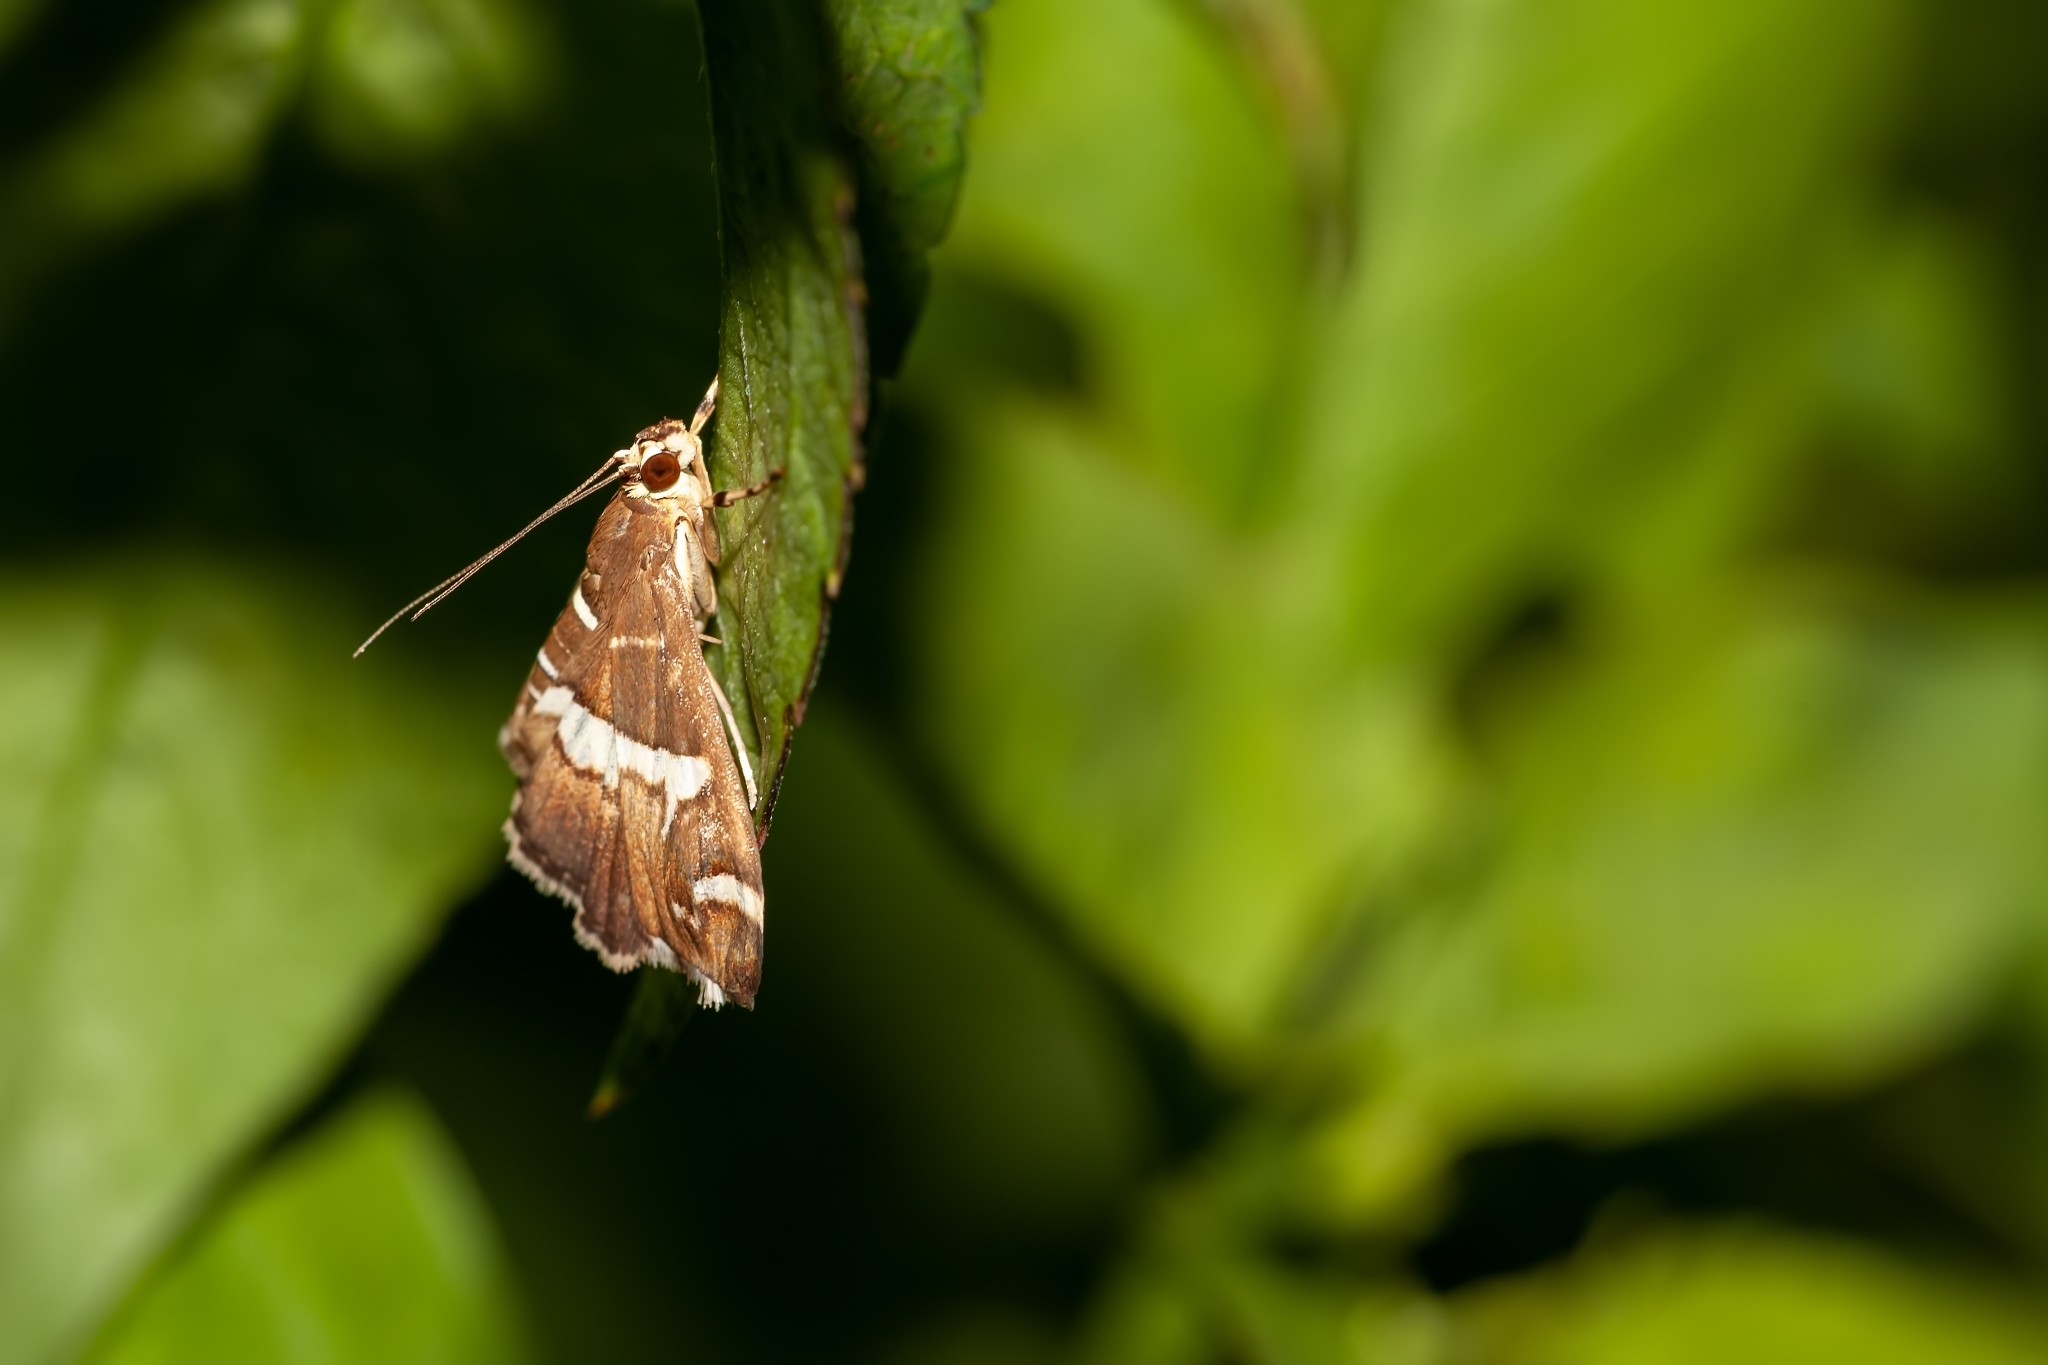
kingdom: Animalia
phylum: Arthropoda
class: Insecta
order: Lepidoptera
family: Crambidae
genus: Spoladea
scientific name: Spoladea recurvalis
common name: Beet webworm moth
